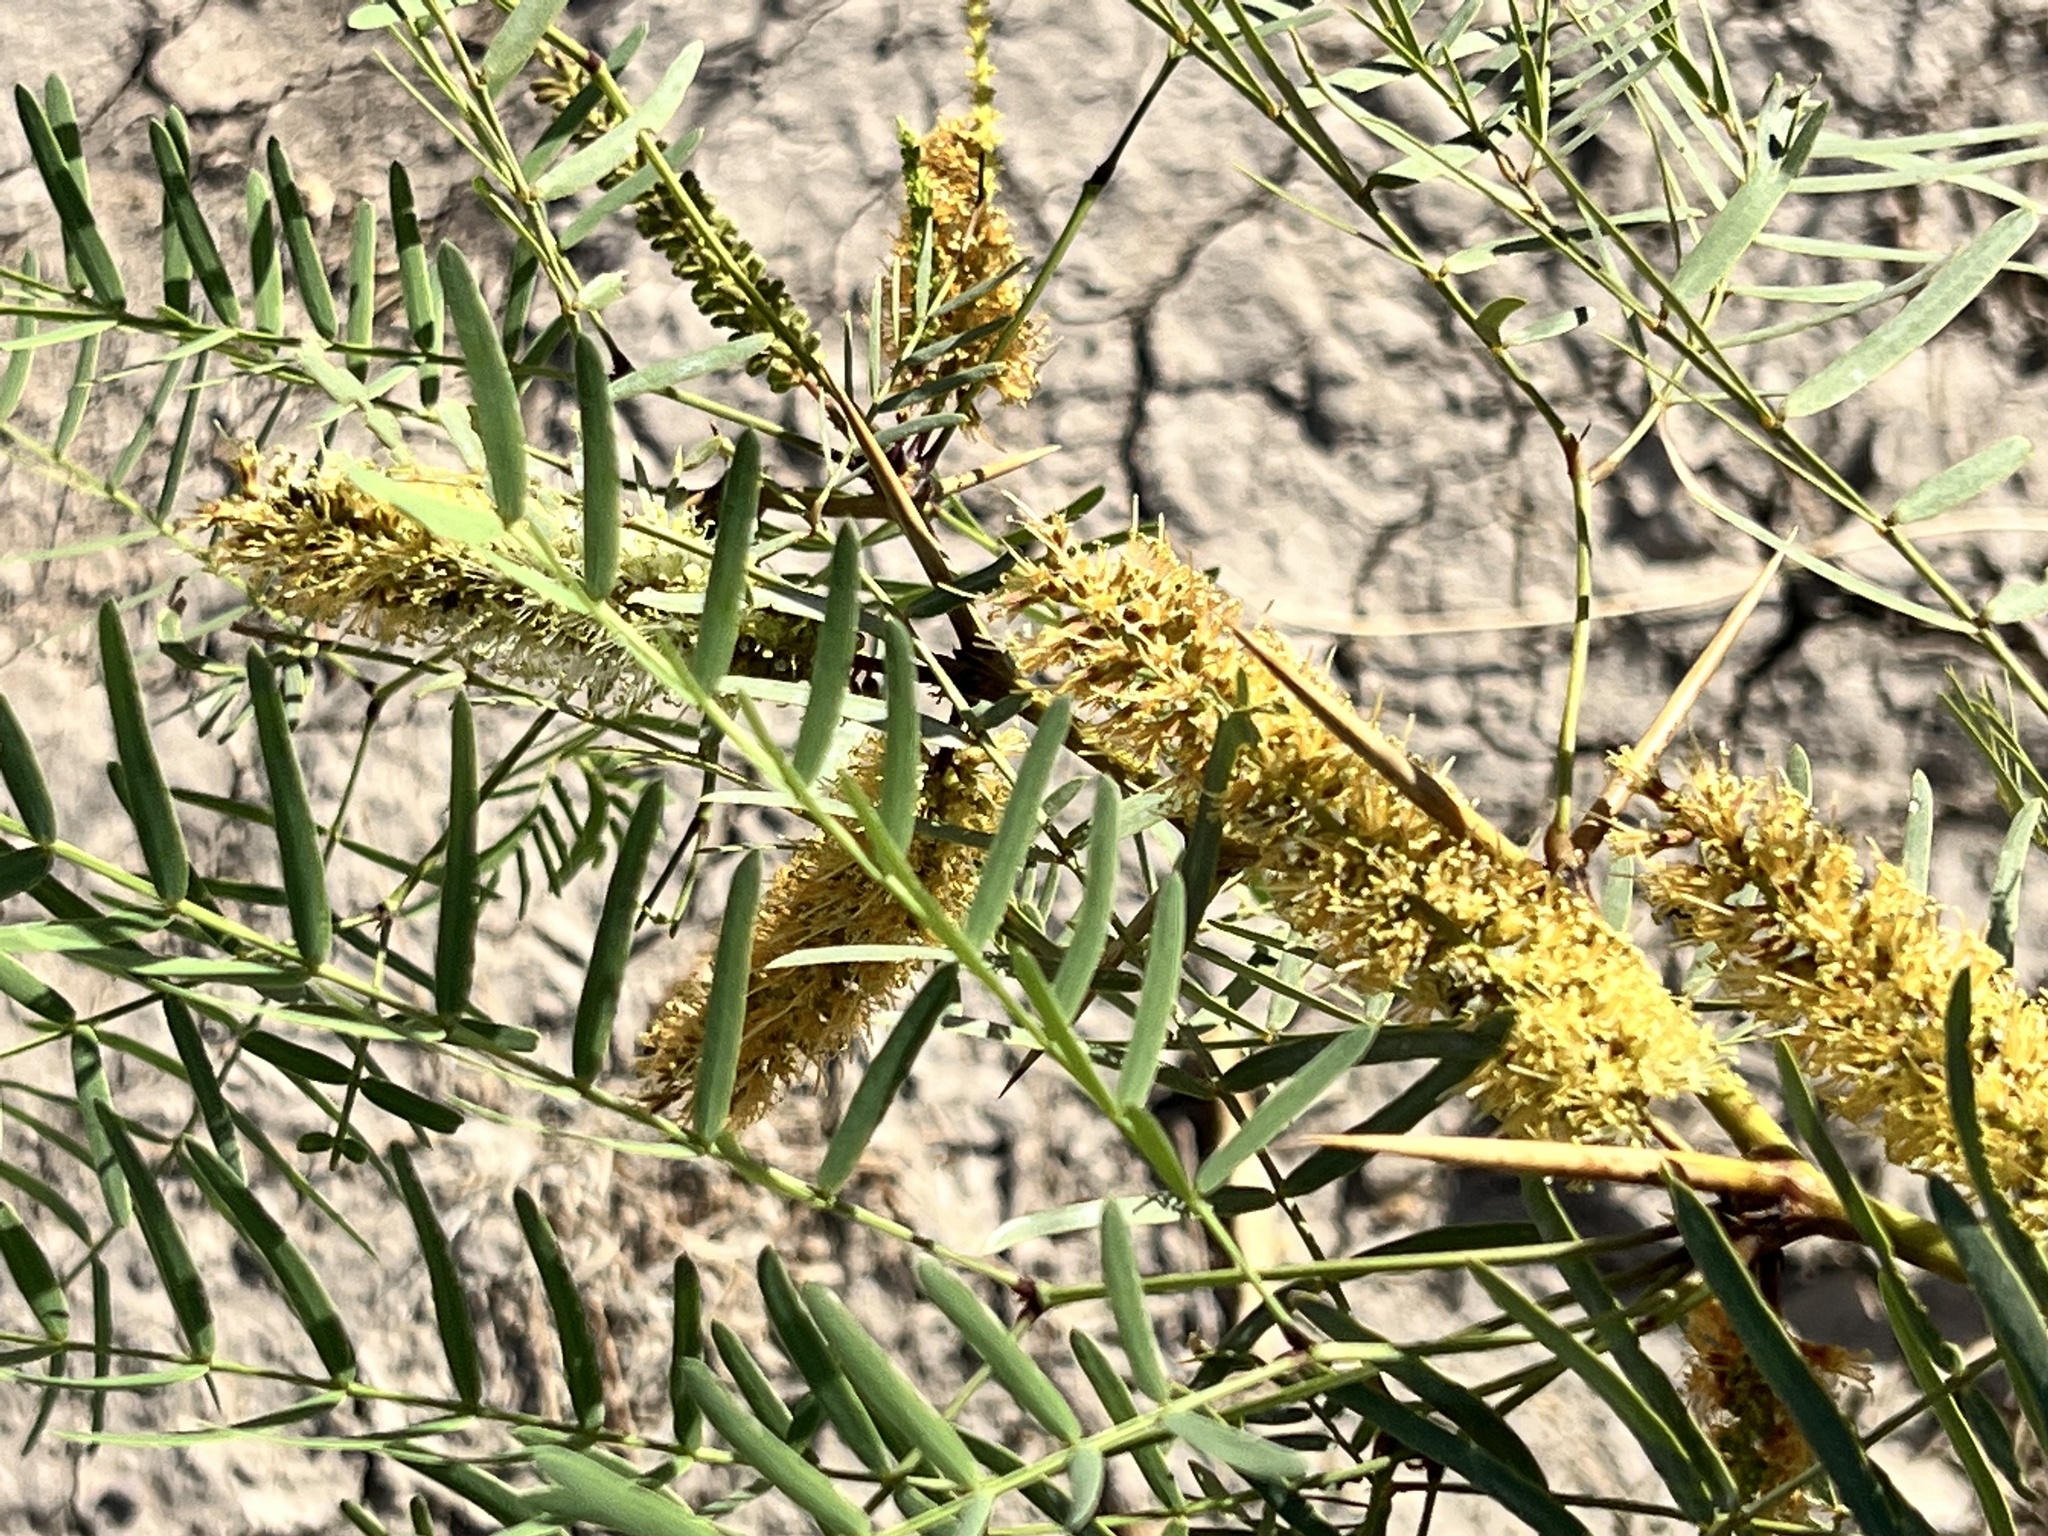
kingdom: Plantae
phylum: Tracheophyta
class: Magnoliopsida
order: Fabales
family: Fabaceae
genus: Prosopis
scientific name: Prosopis glandulosa
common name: Honey mesquite
